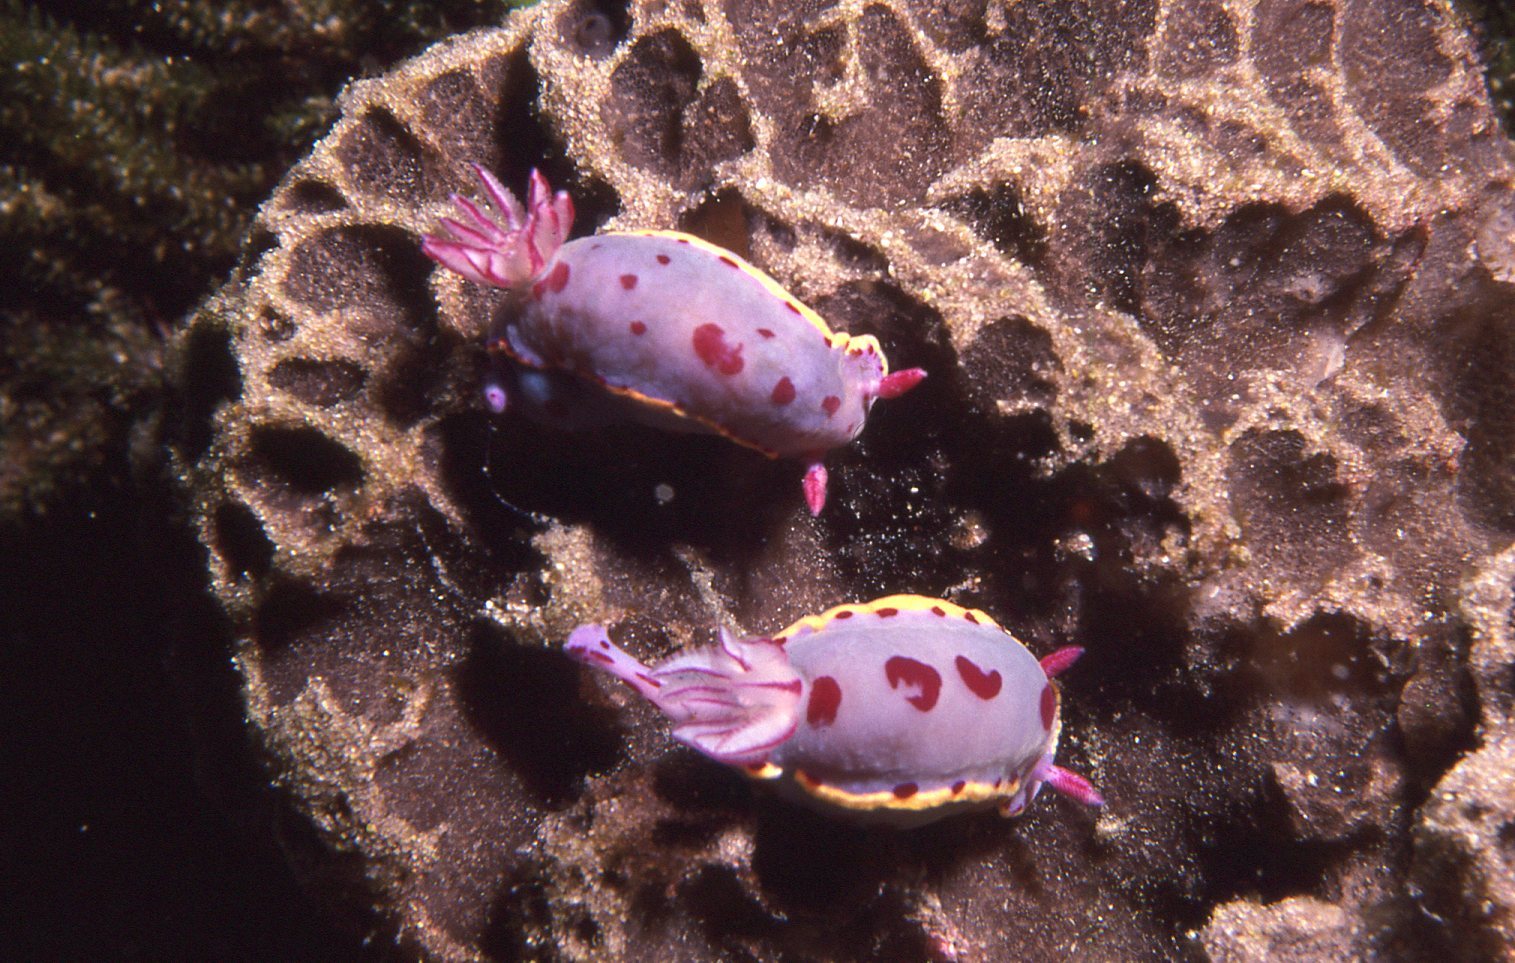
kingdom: Animalia
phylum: Mollusca
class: Gastropoda
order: Nudibranchia
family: Chromodorididae
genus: Hypselodoris
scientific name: Hypselodoris bennetti
